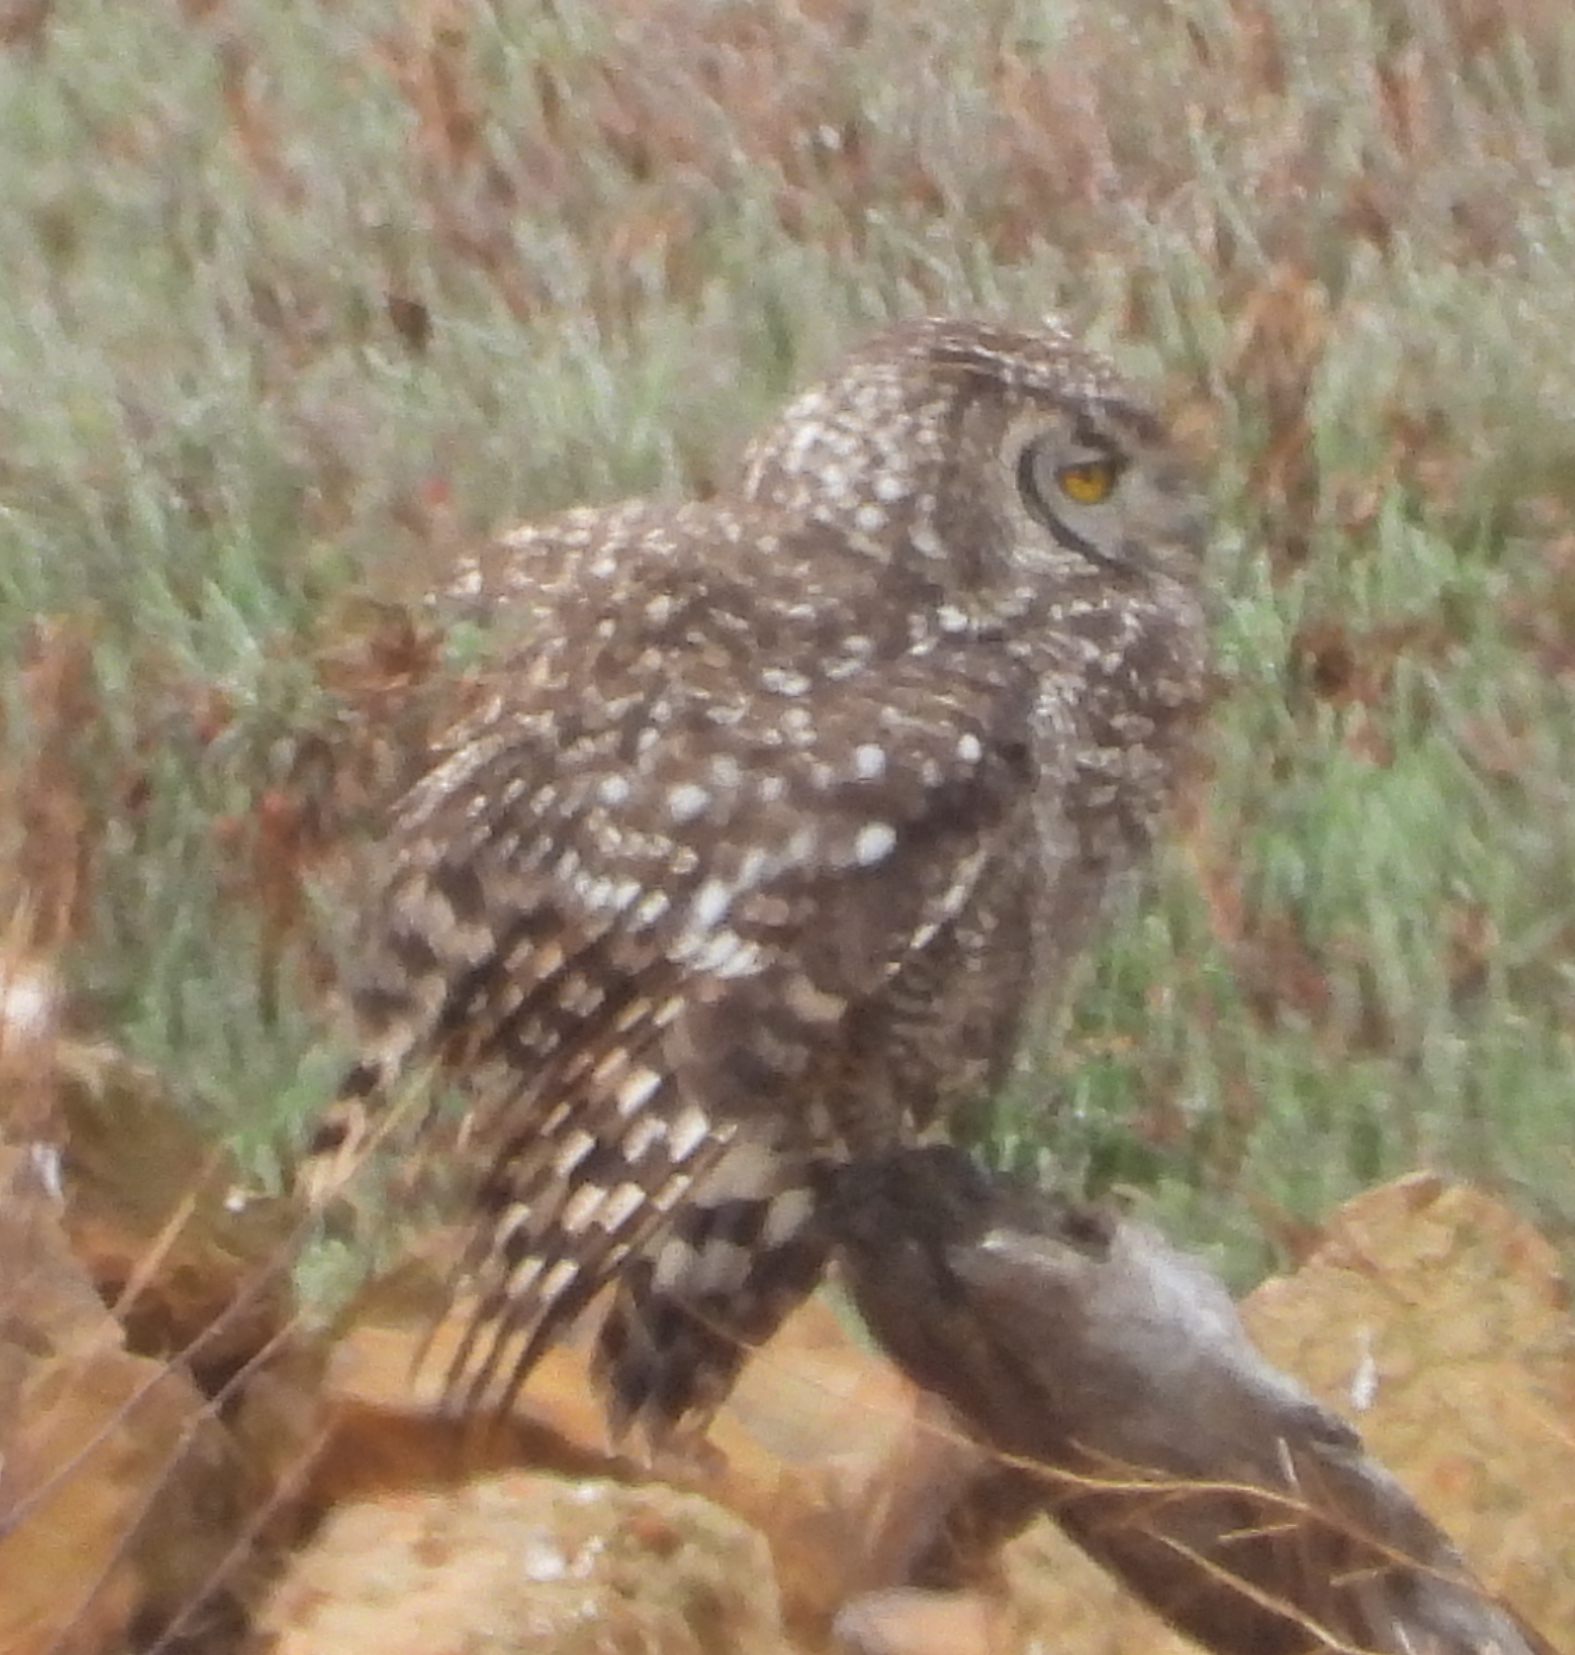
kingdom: Animalia
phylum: Chordata
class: Aves
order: Strigiformes
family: Strigidae
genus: Bubo
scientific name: Bubo africanus
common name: Spotted eagle-owl
